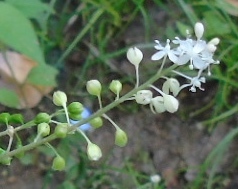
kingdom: Plantae
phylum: Tracheophyta
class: Magnoliopsida
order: Caryophyllales
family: Phytolaccaceae
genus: Rivina
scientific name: Rivina humilis
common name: Rougeplant
